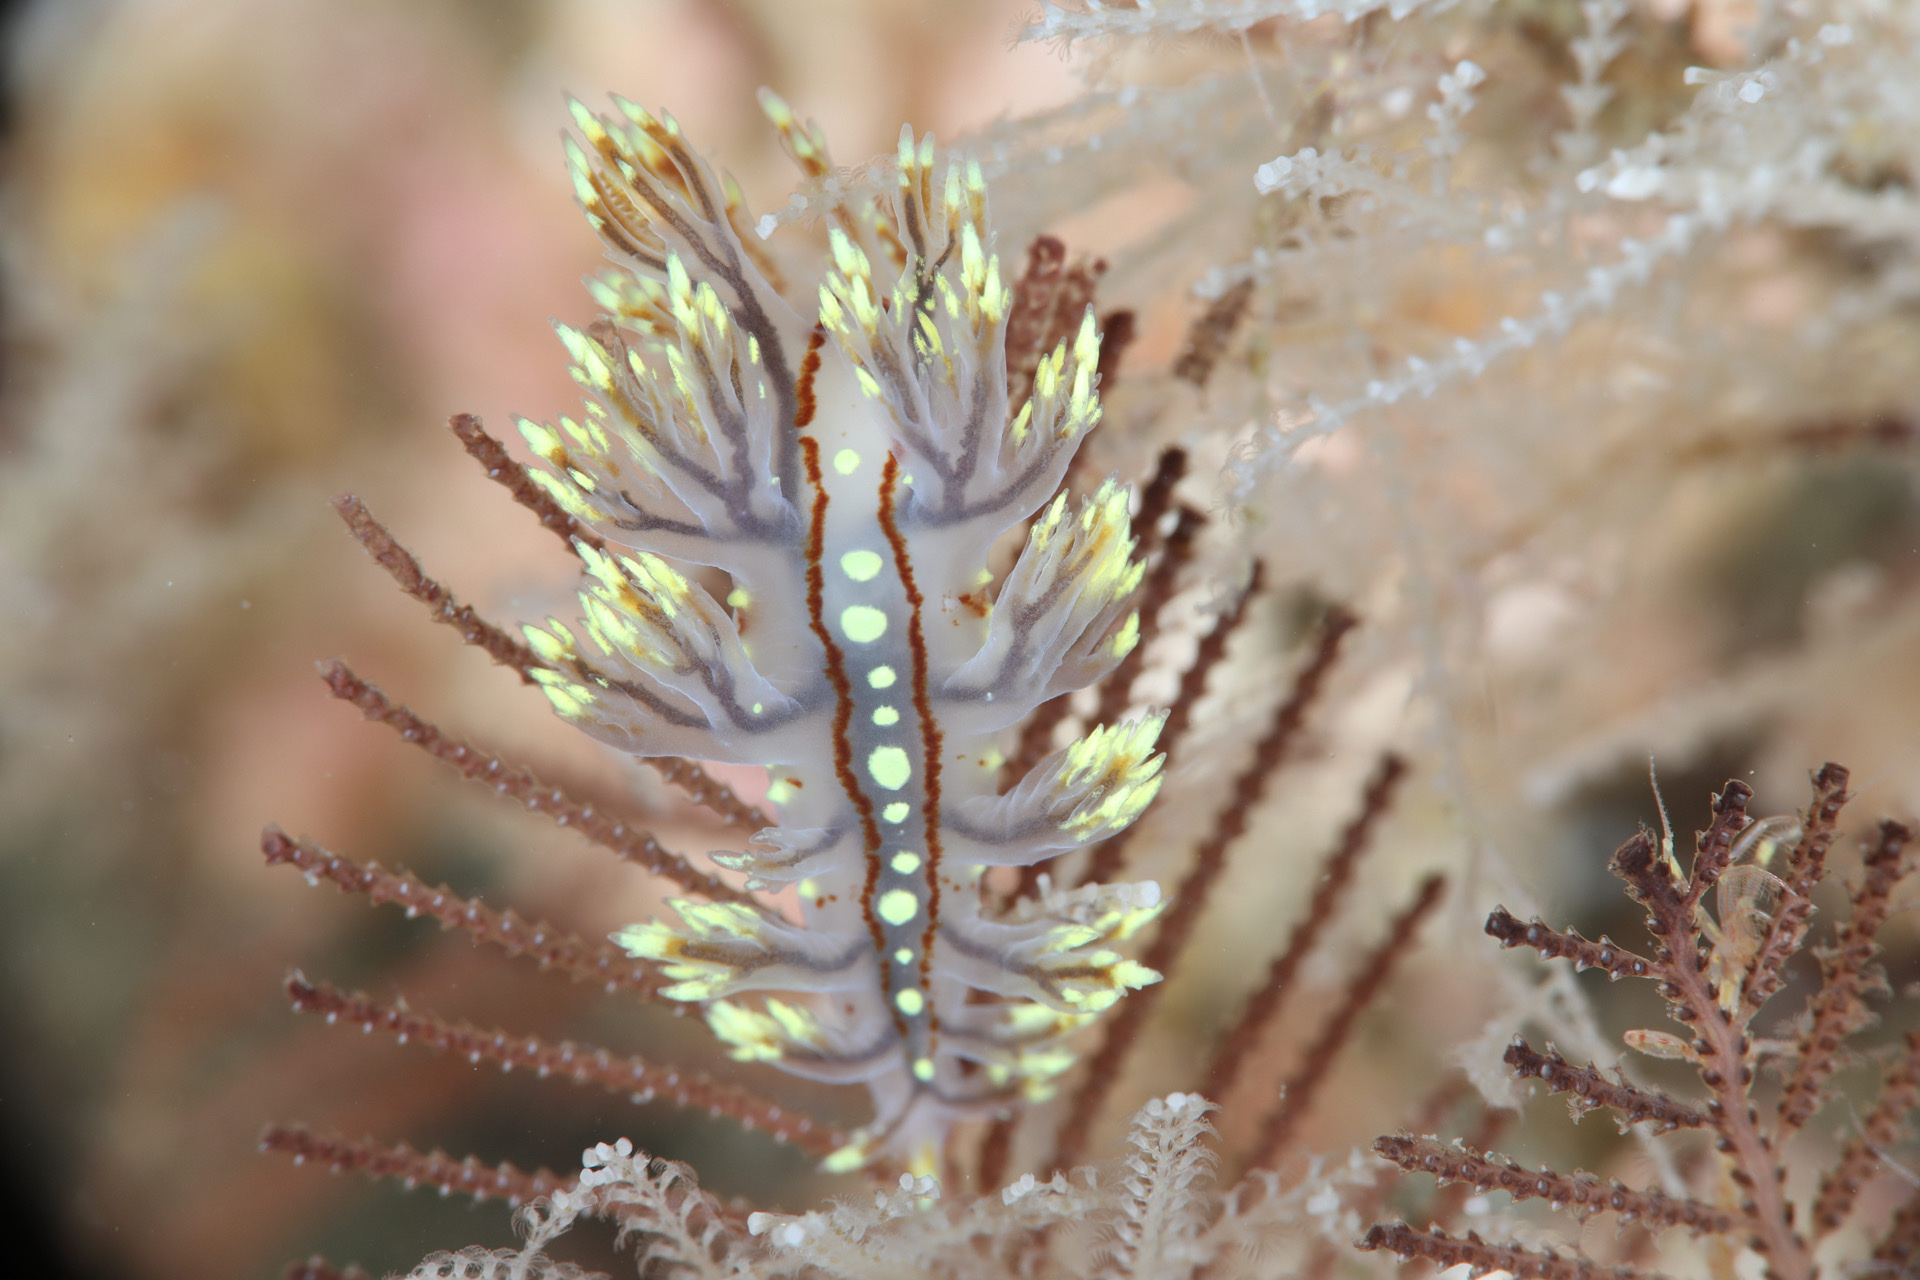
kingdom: Animalia
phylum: Mollusca
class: Gastropoda
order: Nudibranchia
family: Dendronotidae
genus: Dendronotus
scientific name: Dendronotus yrjargul
